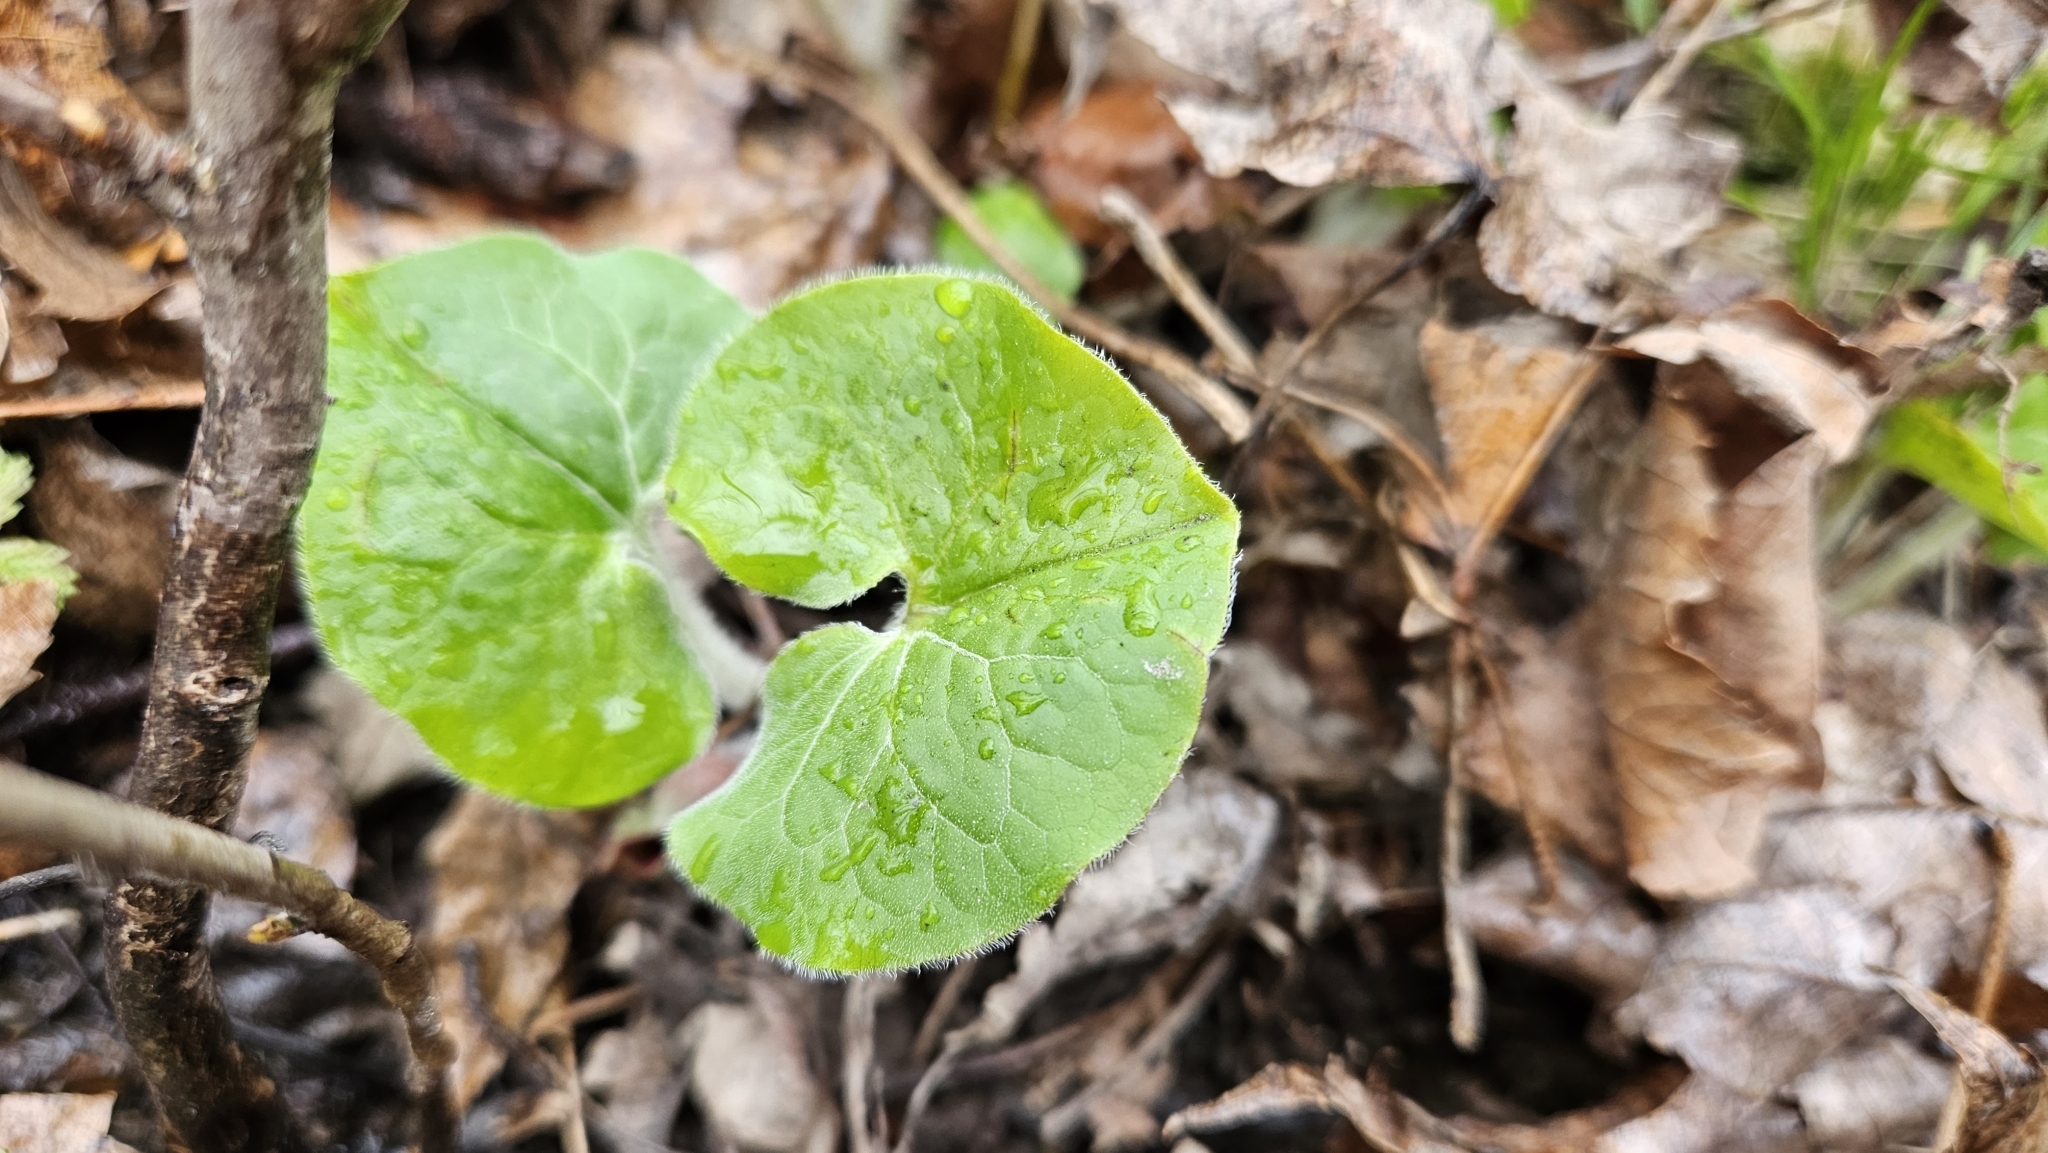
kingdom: Plantae
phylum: Tracheophyta
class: Magnoliopsida
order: Piperales
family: Aristolochiaceae
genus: Asarum
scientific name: Asarum canadense
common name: Wild ginger
